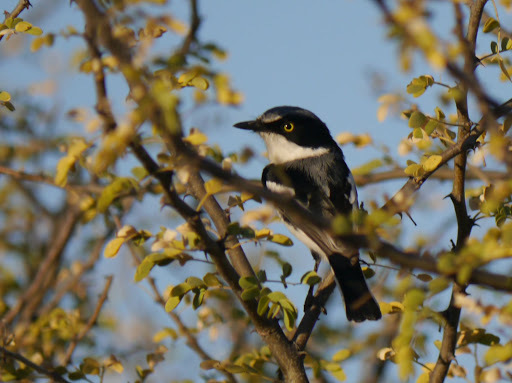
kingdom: Animalia
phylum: Chordata
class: Aves
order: Passeriformes
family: Platysteiridae
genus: Batis
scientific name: Batis pririt
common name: Pririt batis
